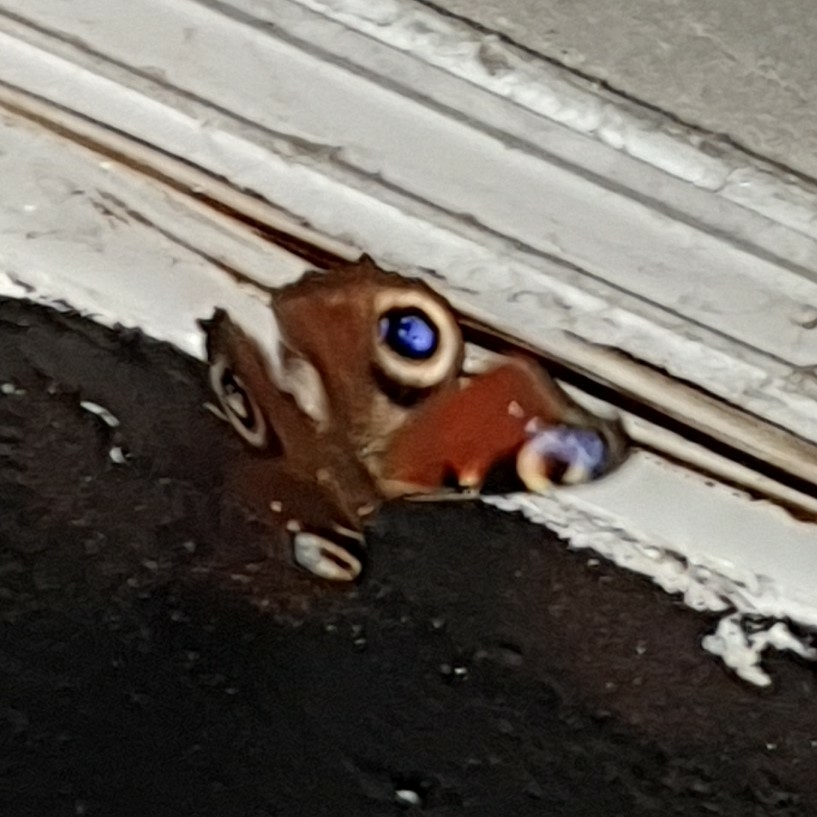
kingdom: Animalia
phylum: Arthropoda
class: Insecta
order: Lepidoptera
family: Nymphalidae
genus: Aglais
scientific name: Aglais io
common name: Peacock
